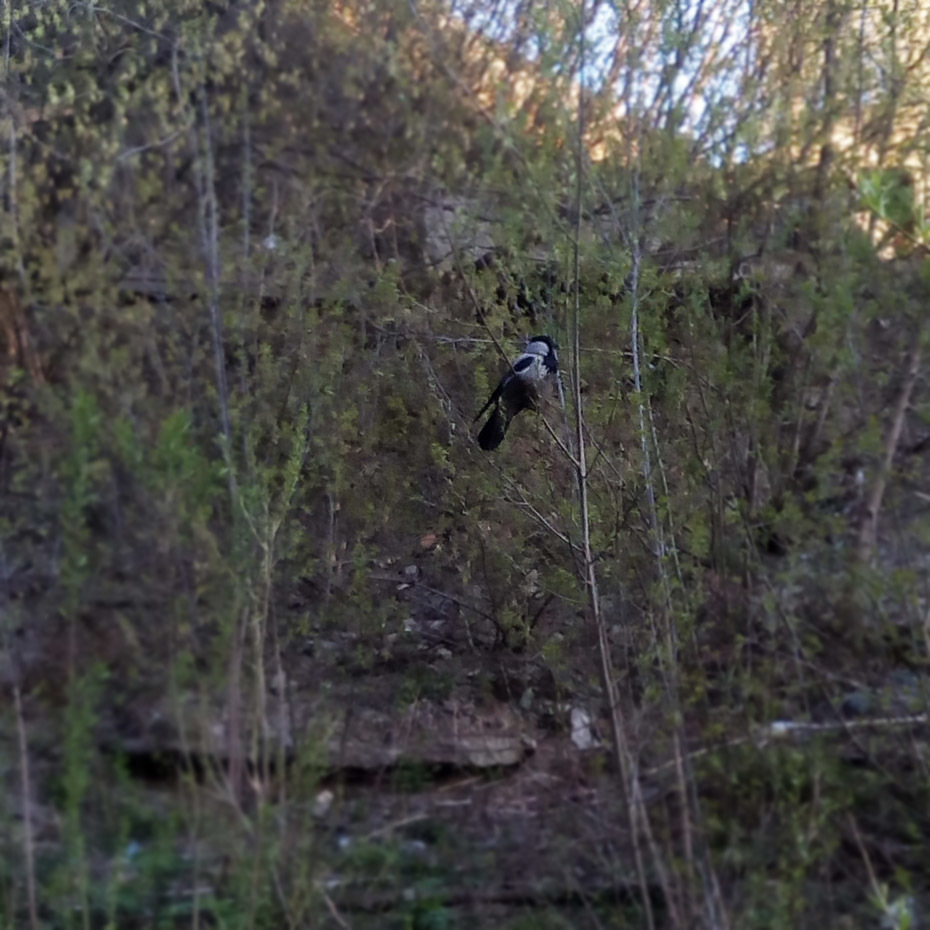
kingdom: Animalia
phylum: Chordata
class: Aves
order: Passeriformes
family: Corvidae
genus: Corvus
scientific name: Corvus cornix
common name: Hooded crow
